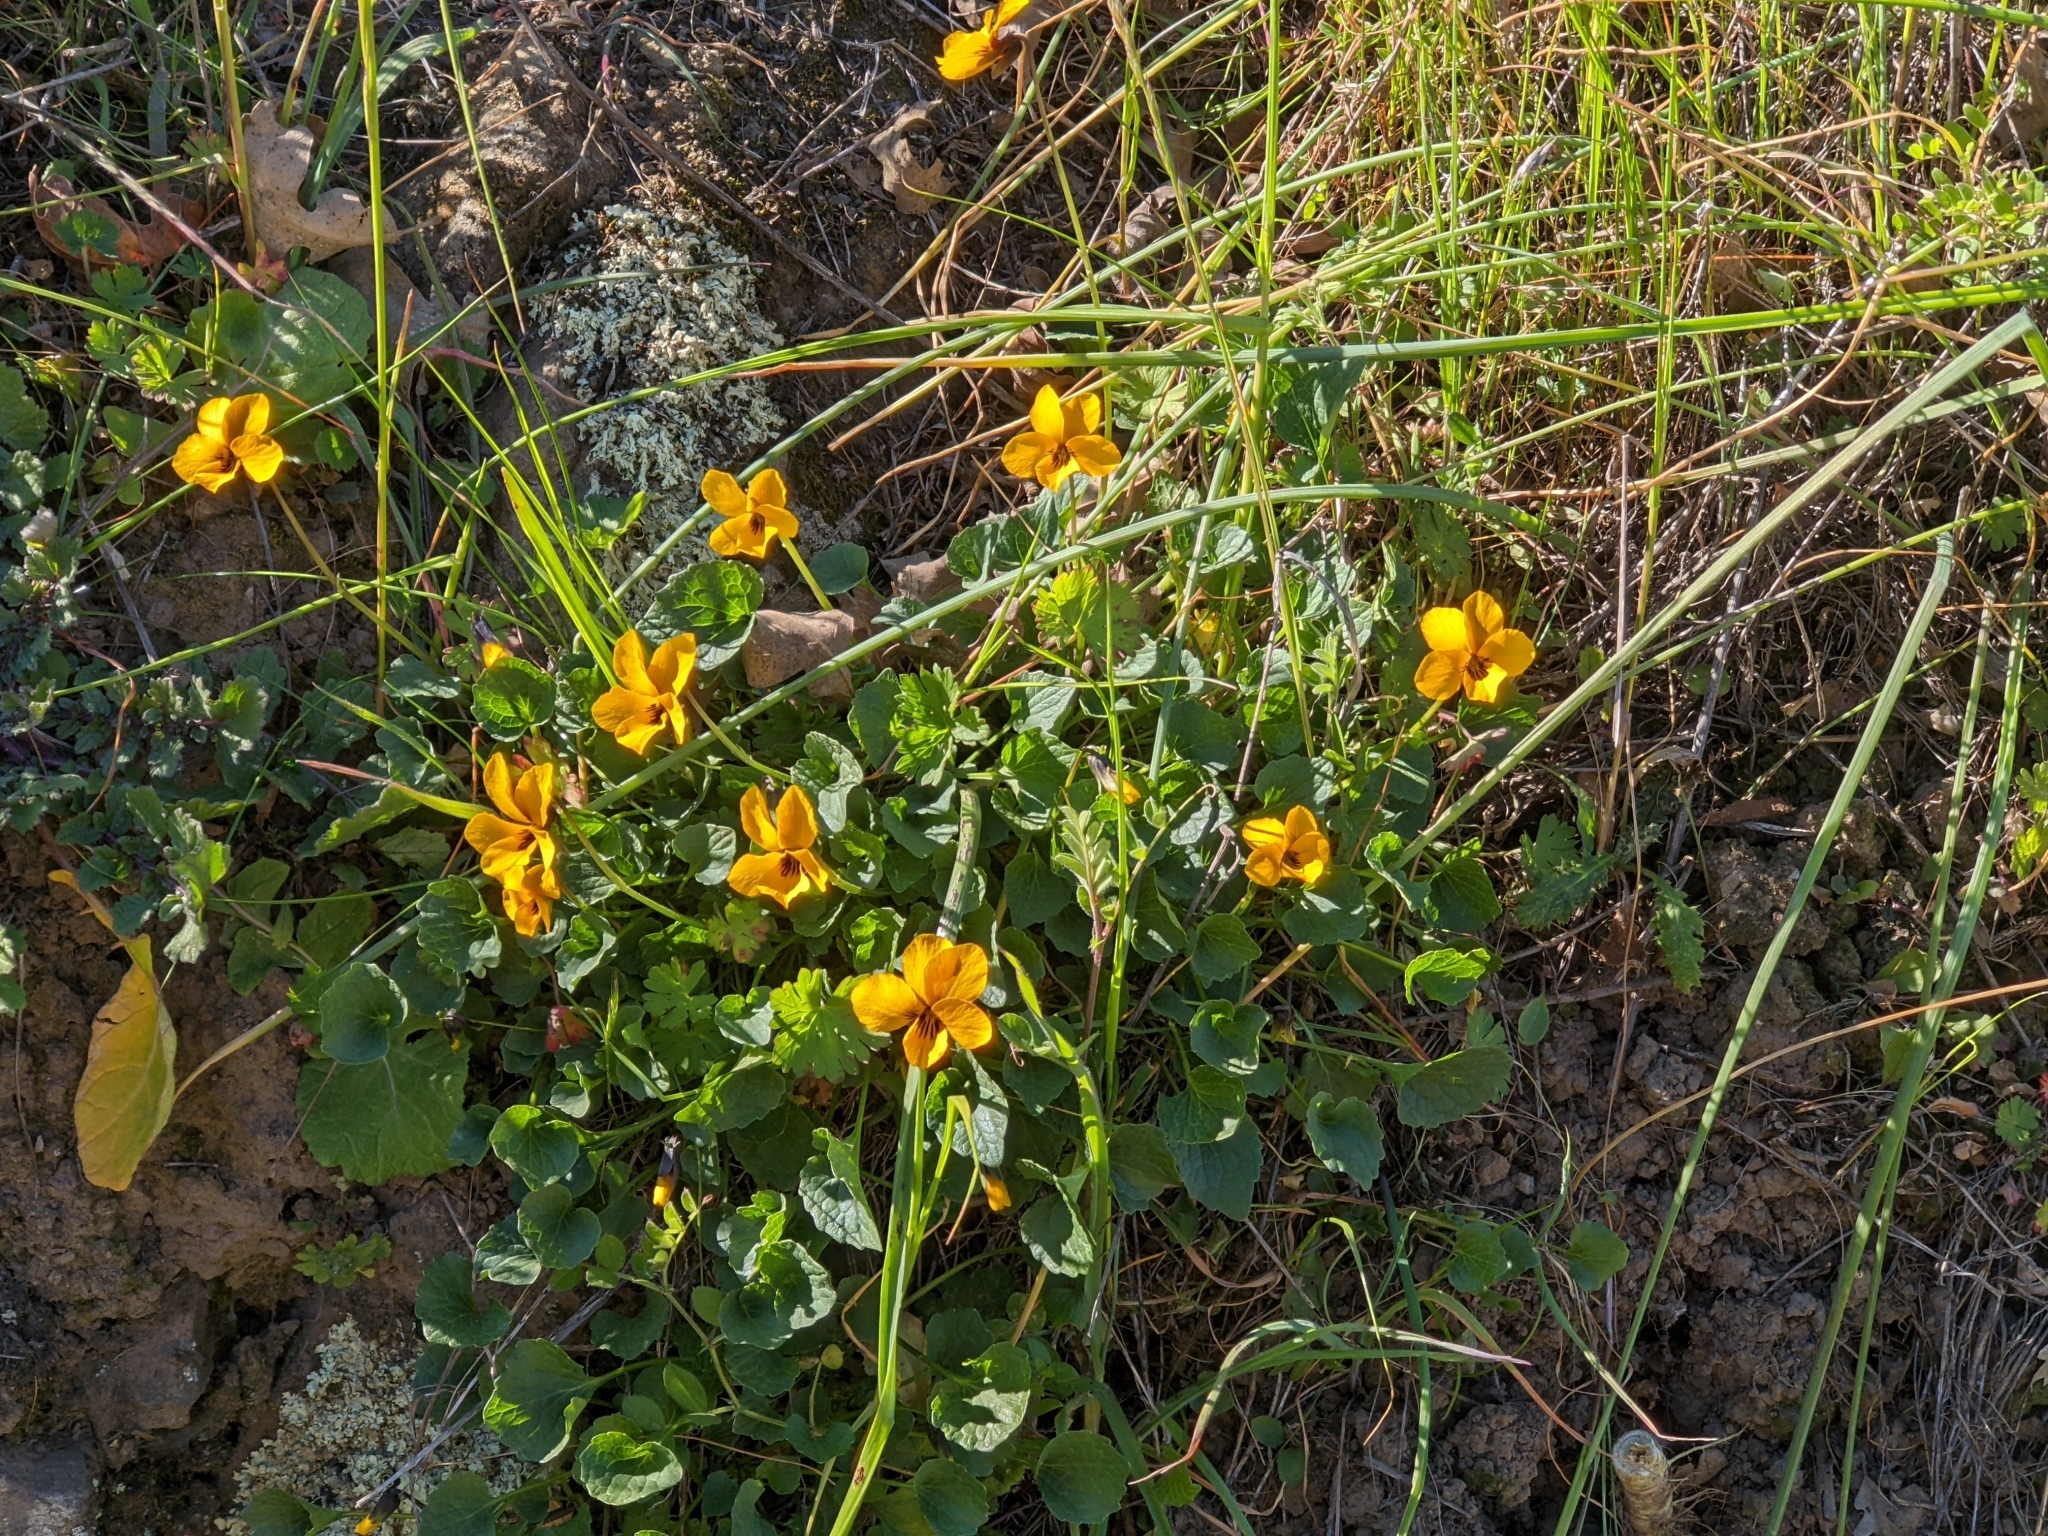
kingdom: Plantae
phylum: Tracheophyta
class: Magnoliopsida
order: Malpighiales
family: Violaceae
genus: Viola
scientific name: Viola pedunculata
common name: California golden violet
